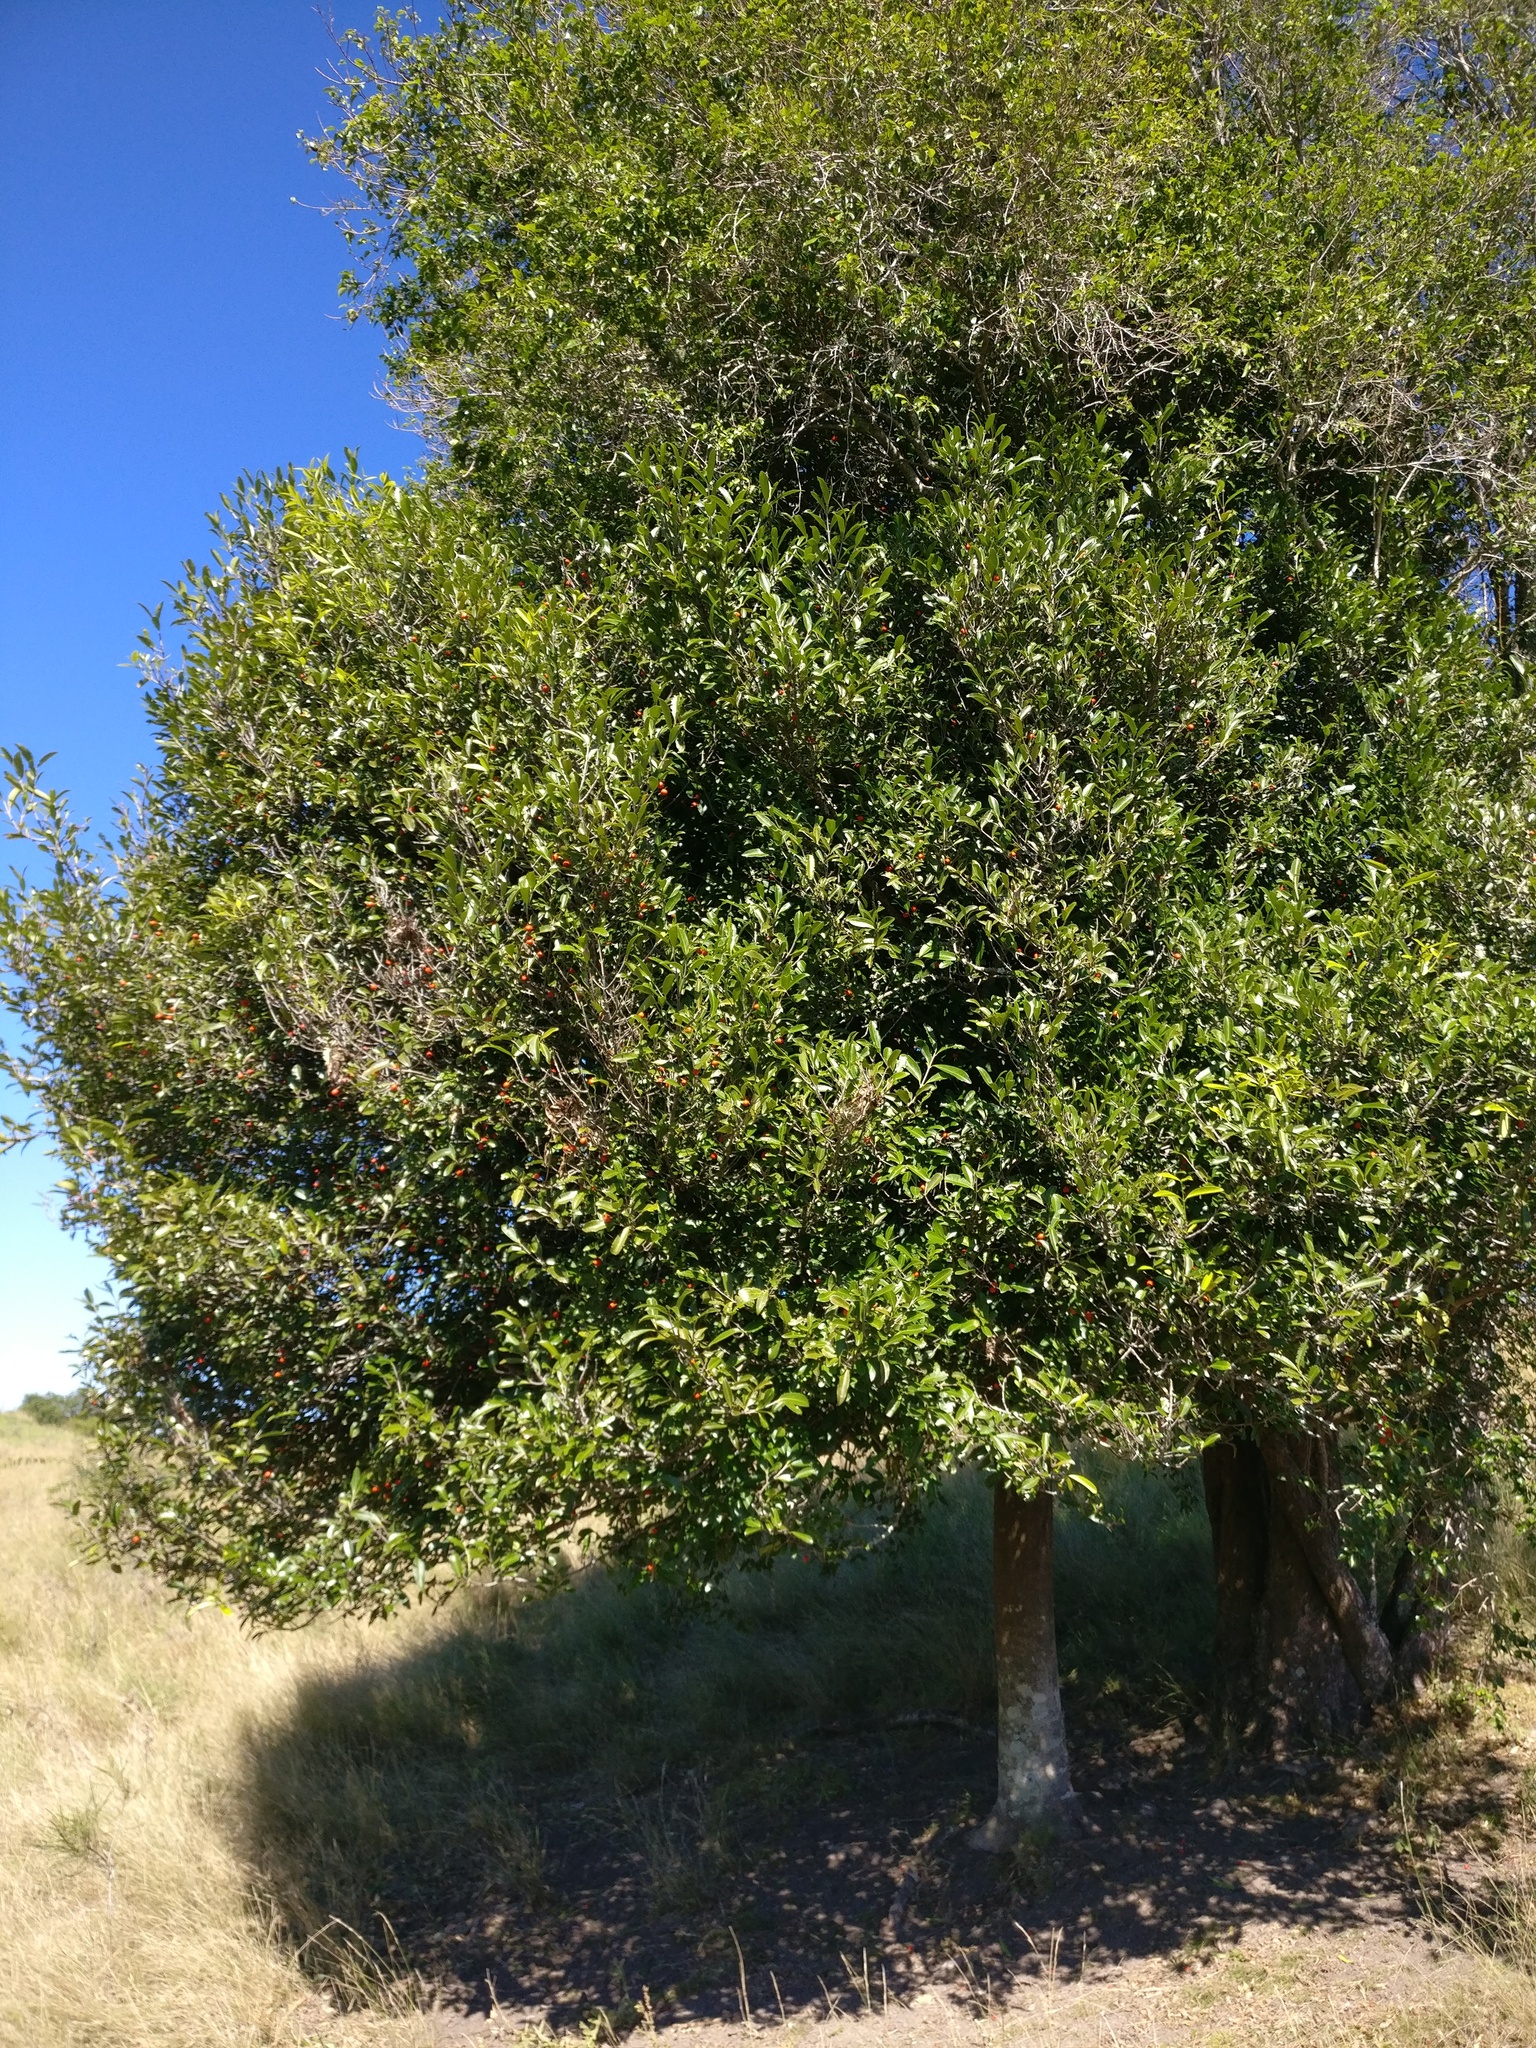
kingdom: Plantae
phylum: Tracheophyta
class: Magnoliopsida
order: Celastrales
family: Celastraceae
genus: Elaeodendron
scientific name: Elaeodendron australe
